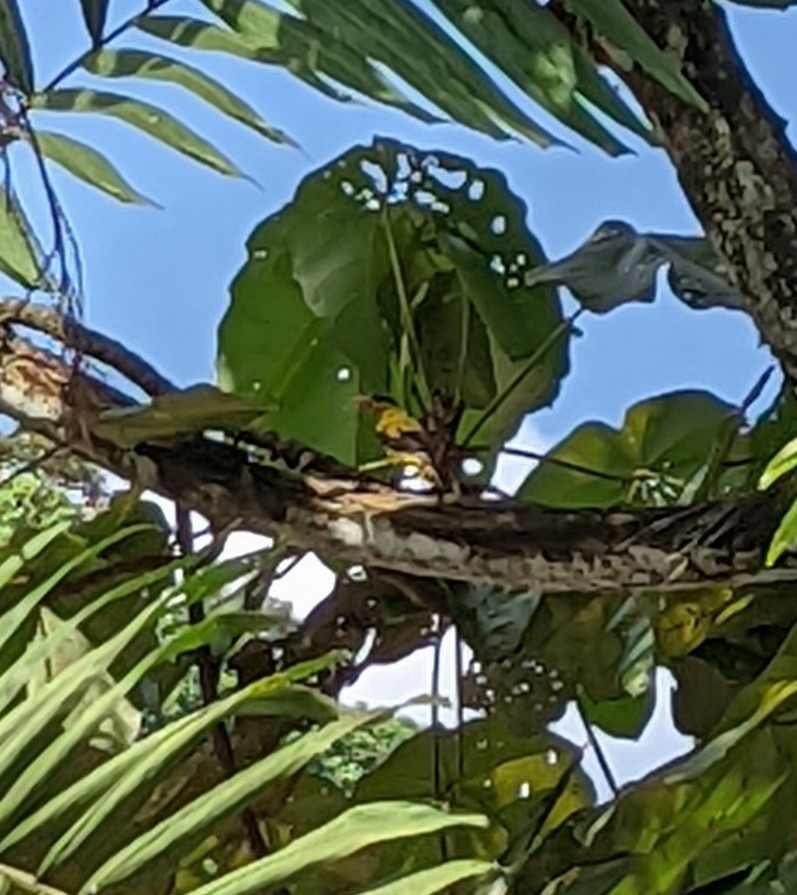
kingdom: Animalia
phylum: Chordata
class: Aves
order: Passeriformes
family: Oriolidae
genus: Oriolus
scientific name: Oriolus chinensis
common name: Black-naped oriole
